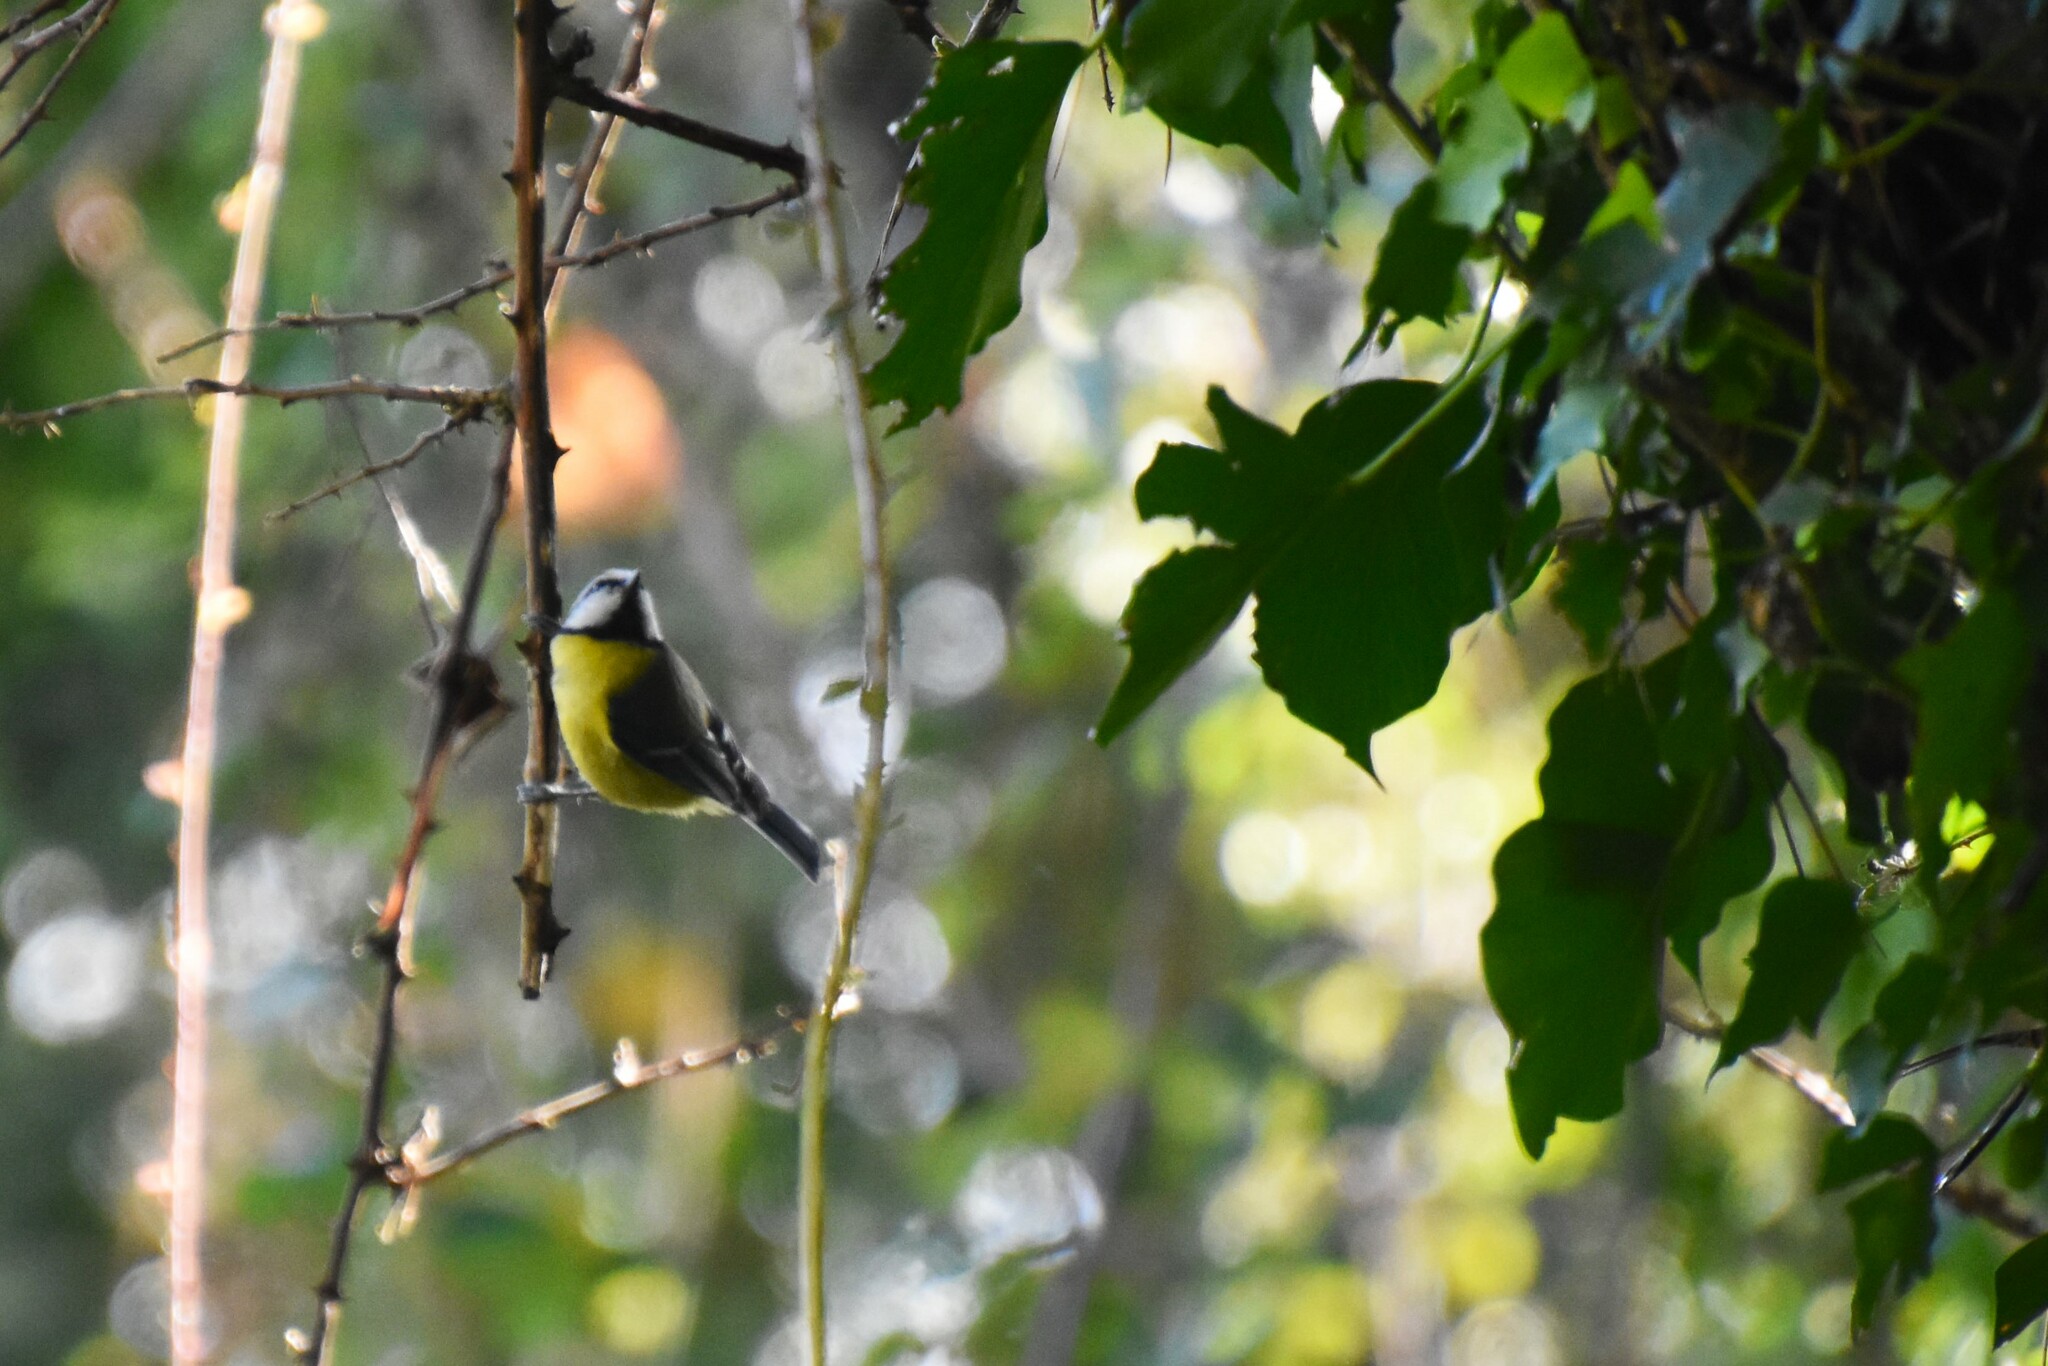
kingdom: Animalia
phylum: Chordata
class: Aves
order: Passeriformes
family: Paridae
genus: Cyanistes
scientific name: Cyanistes caeruleus
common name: Eurasian blue tit
